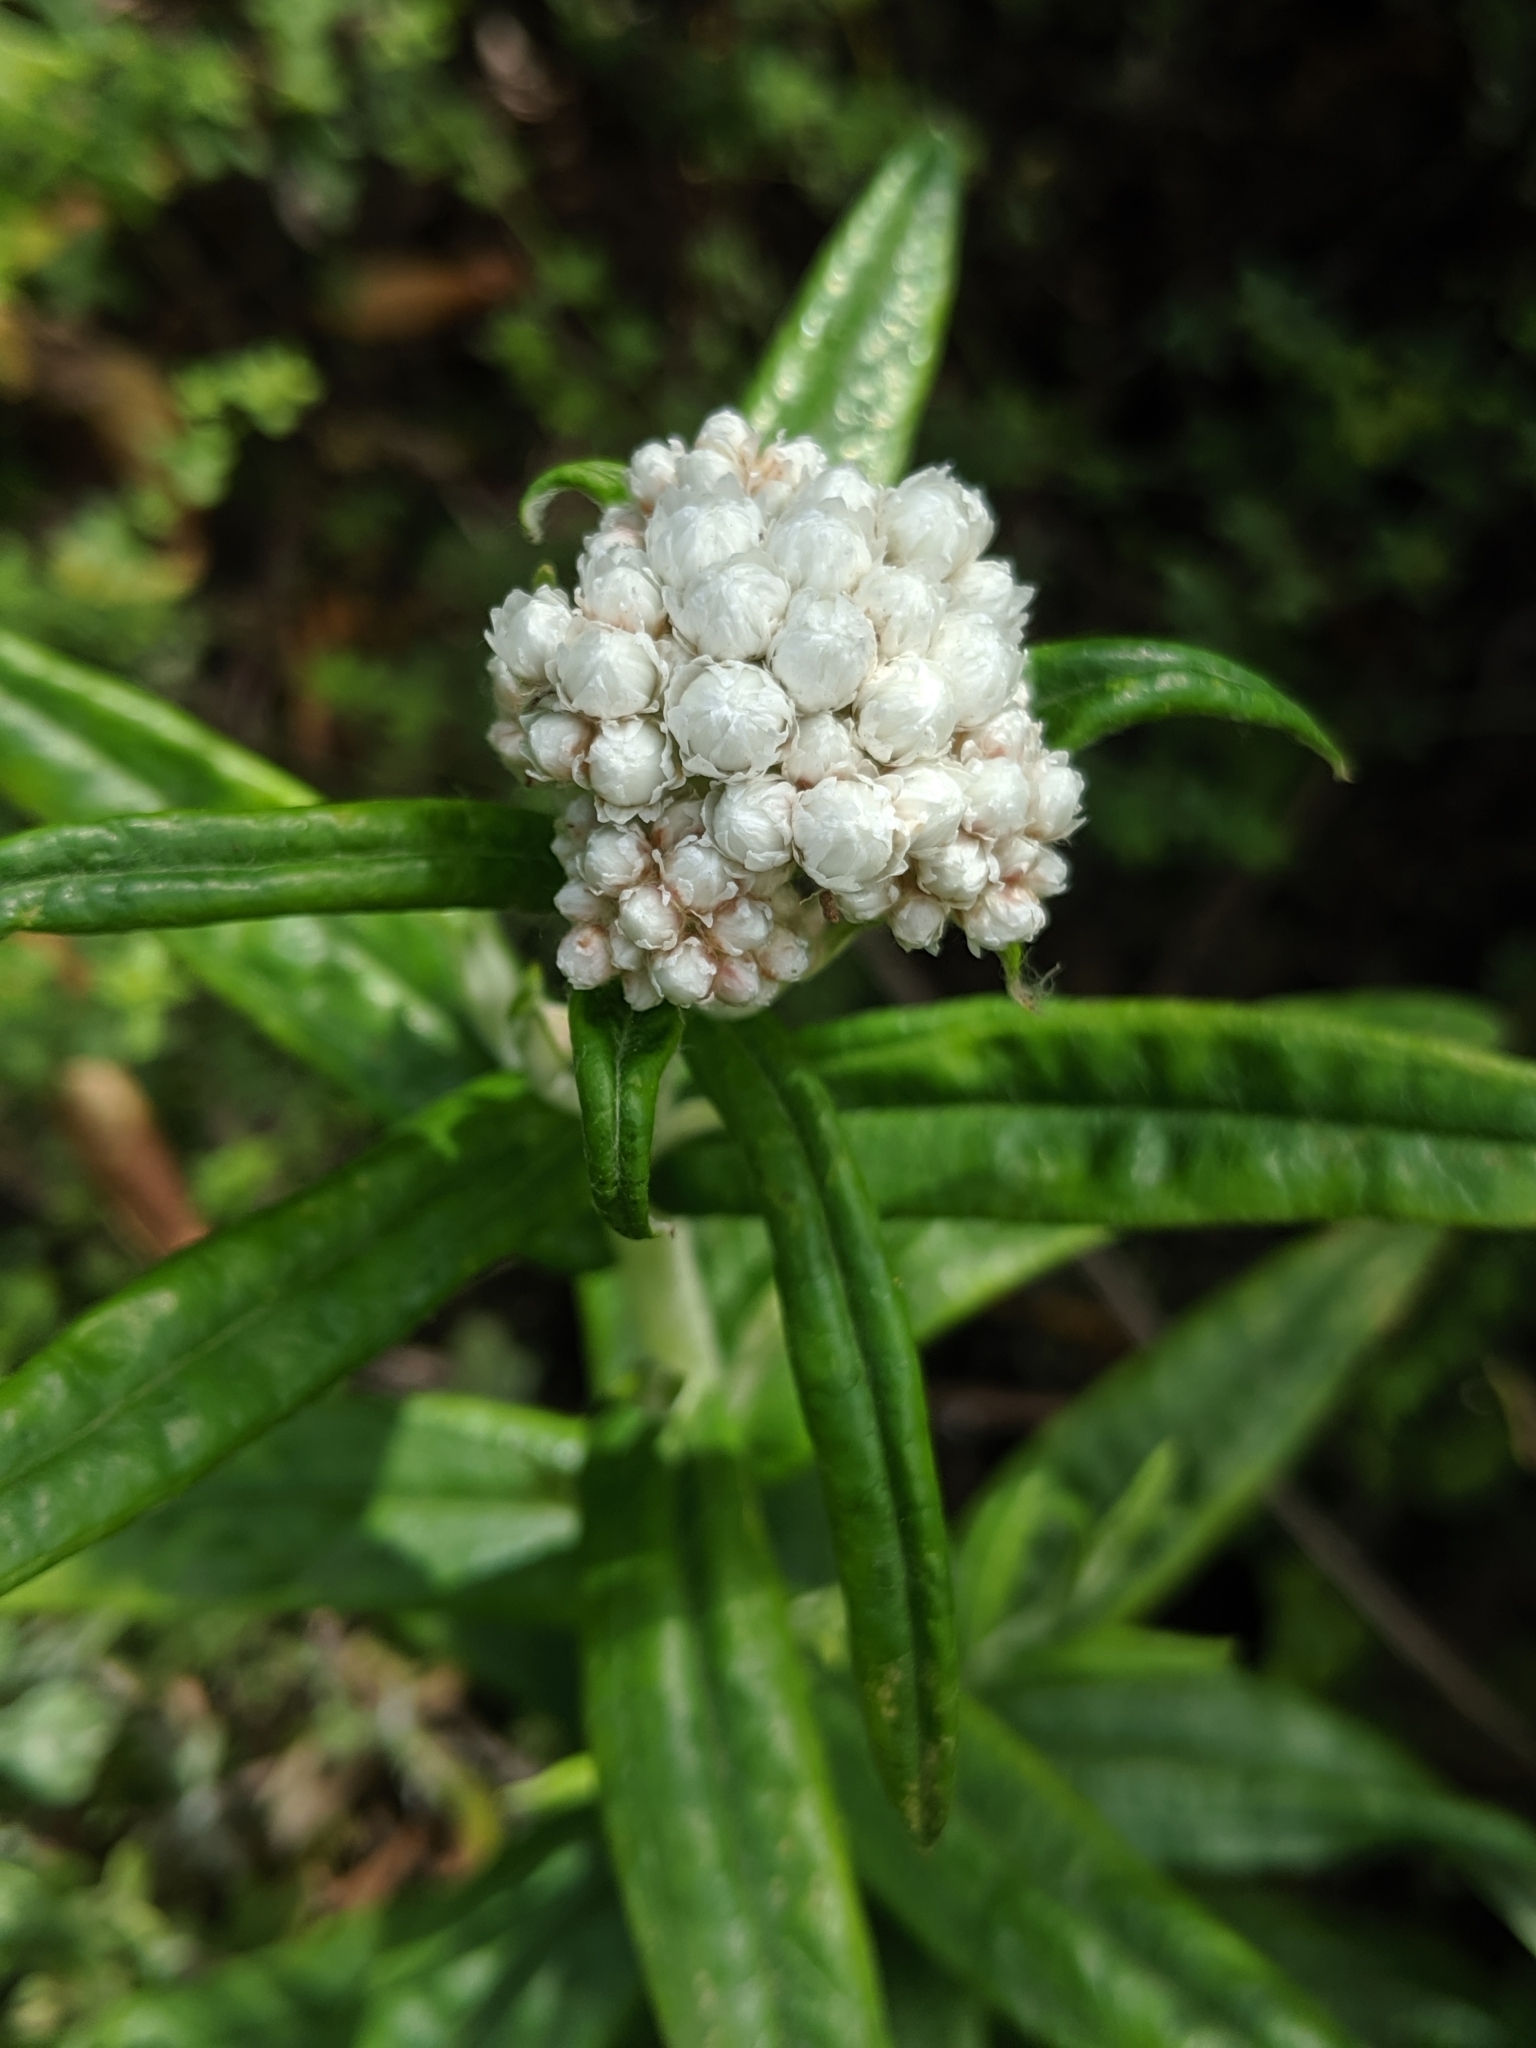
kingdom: Plantae
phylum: Tracheophyta
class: Magnoliopsida
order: Asterales
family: Asteraceae
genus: Anaphalis
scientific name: Anaphalis margaritacea
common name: Pearly everlasting
